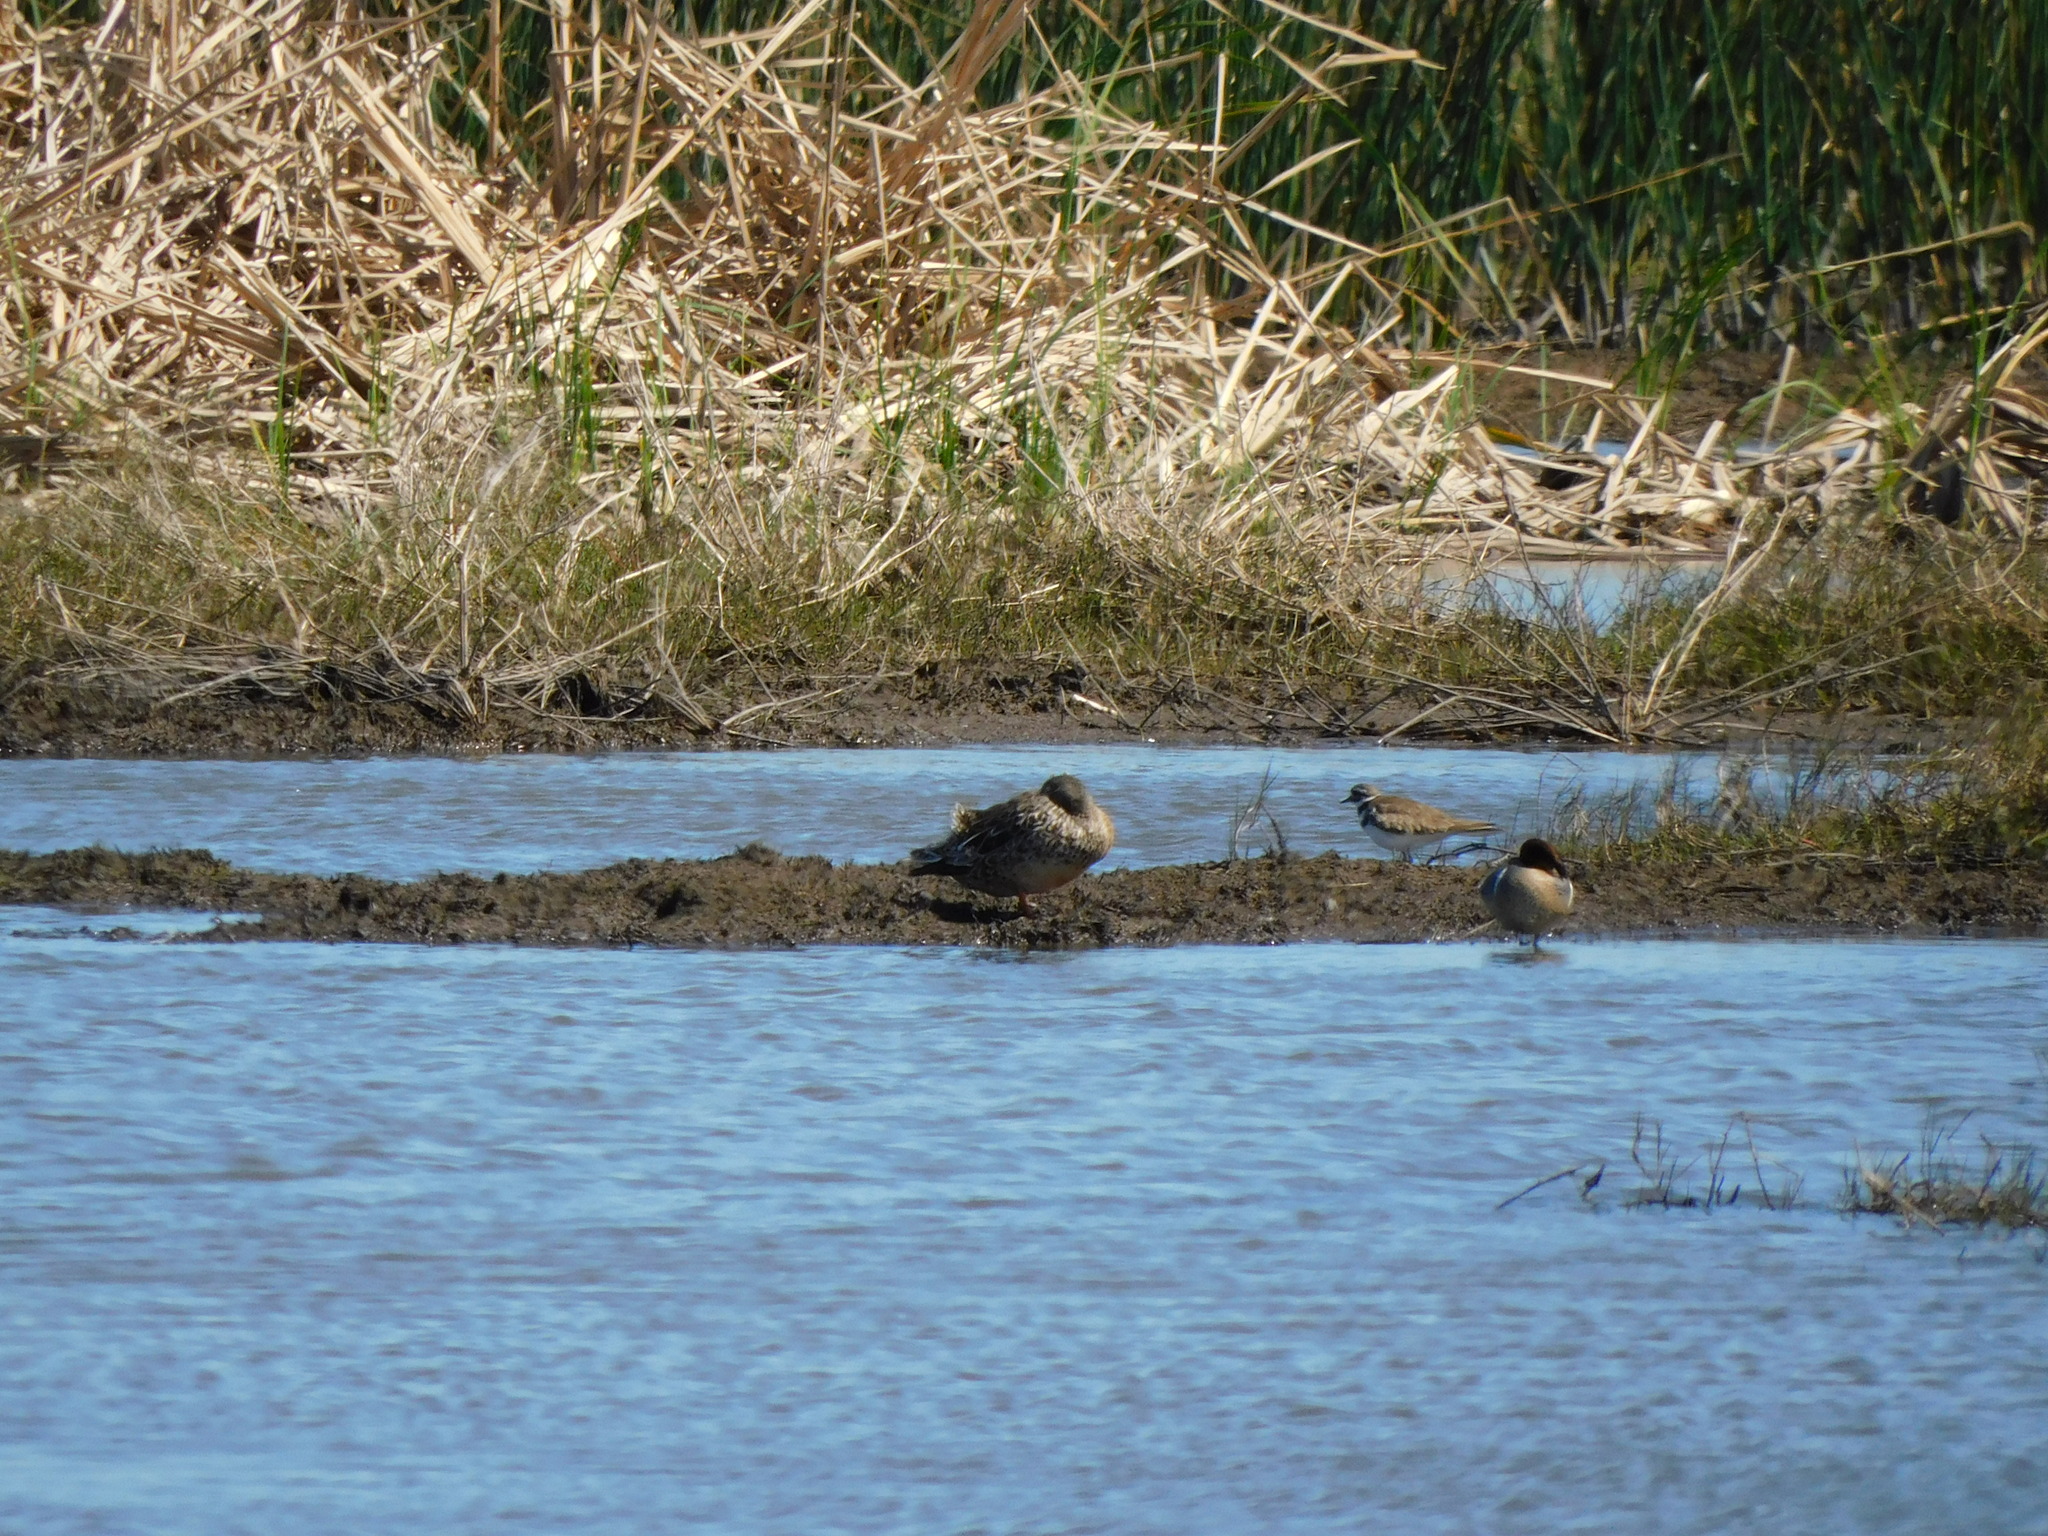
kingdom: Animalia
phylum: Chordata
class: Aves
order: Charadriiformes
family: Charadriidae
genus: Charadrius
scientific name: Charadrius vociferus
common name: Killdeer
